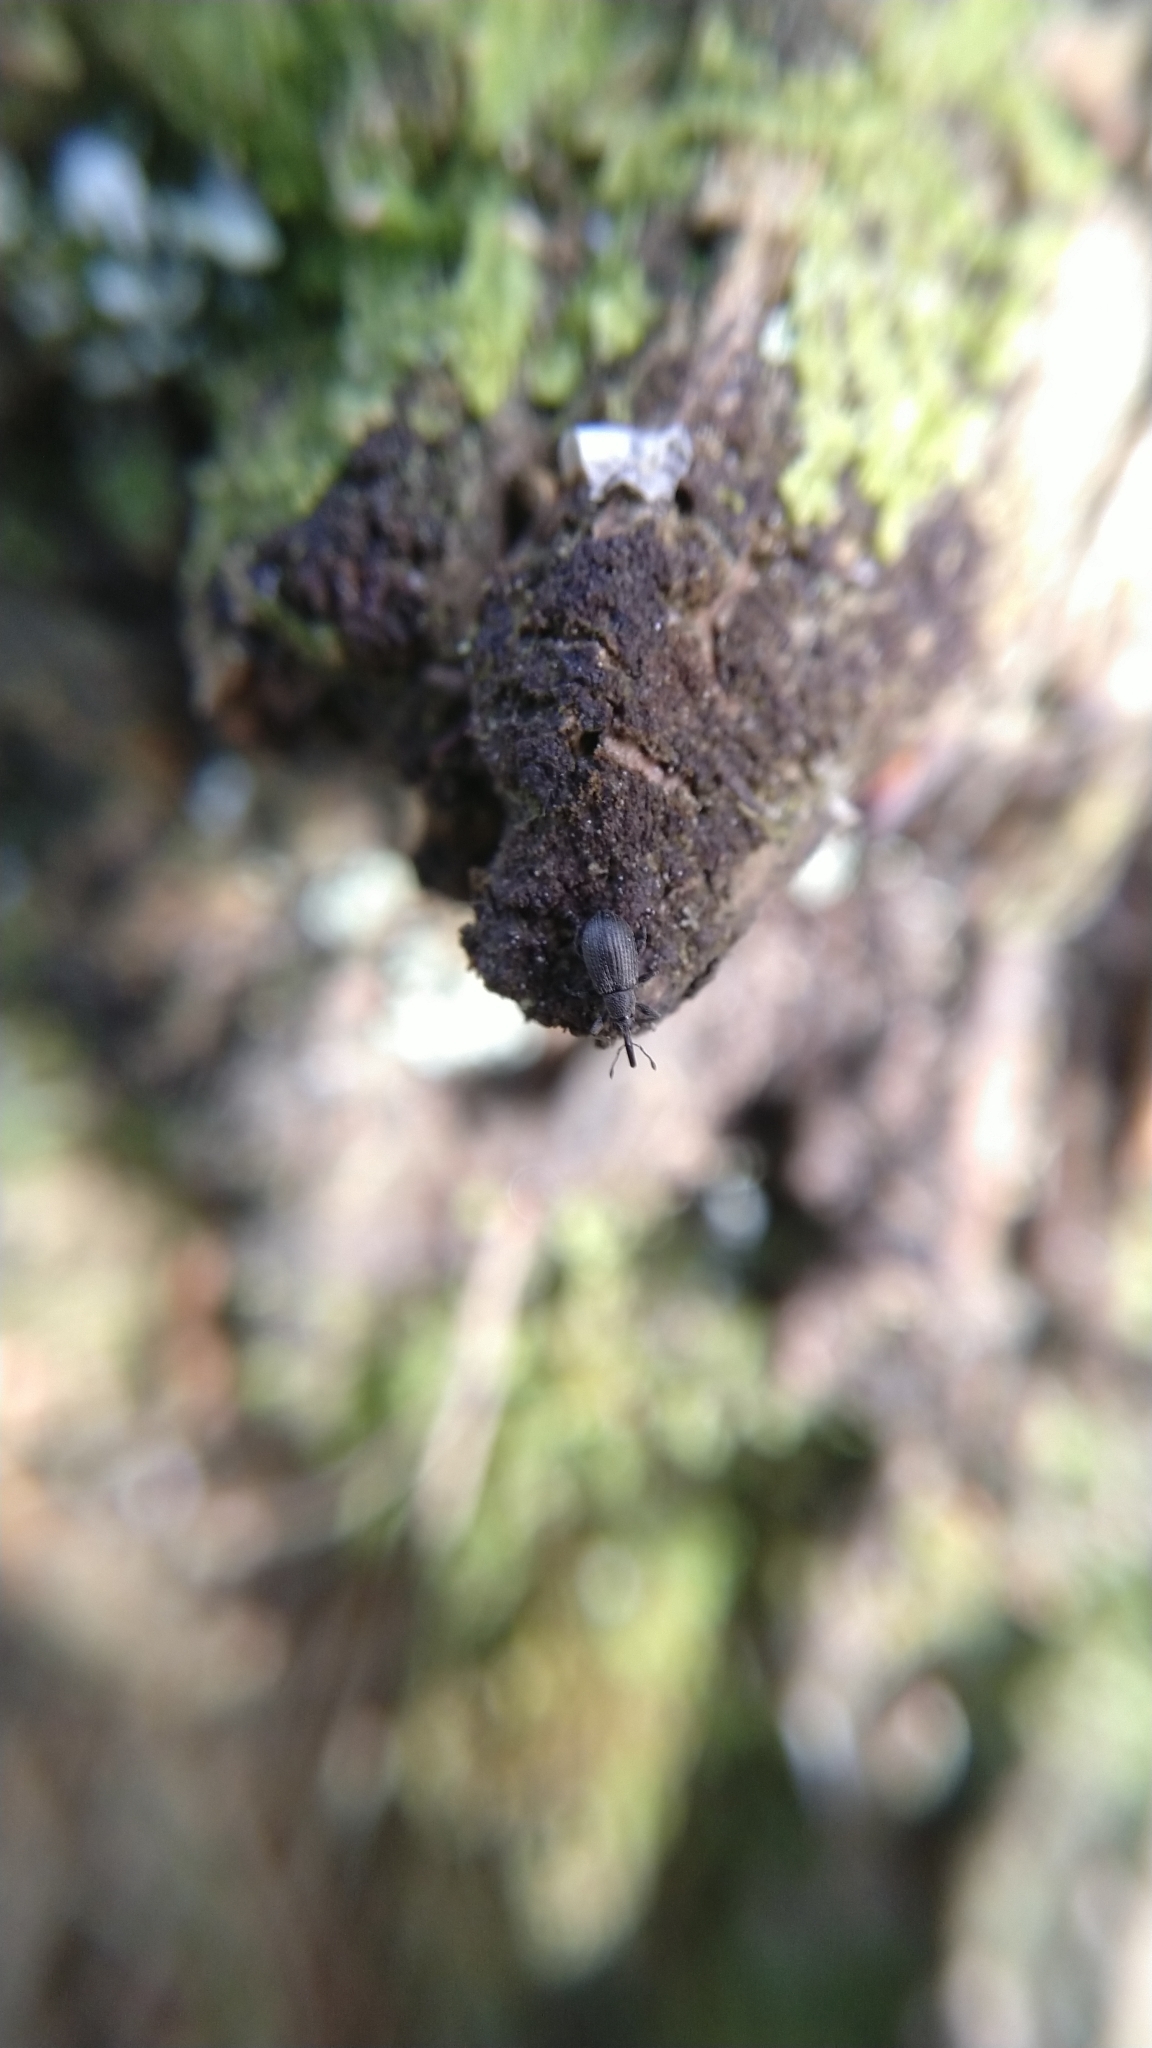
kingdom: Animalia
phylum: Arthropoda
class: Insecta
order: Coleoptera
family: Brentidae
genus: Betulapion
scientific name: Betulapion simile
